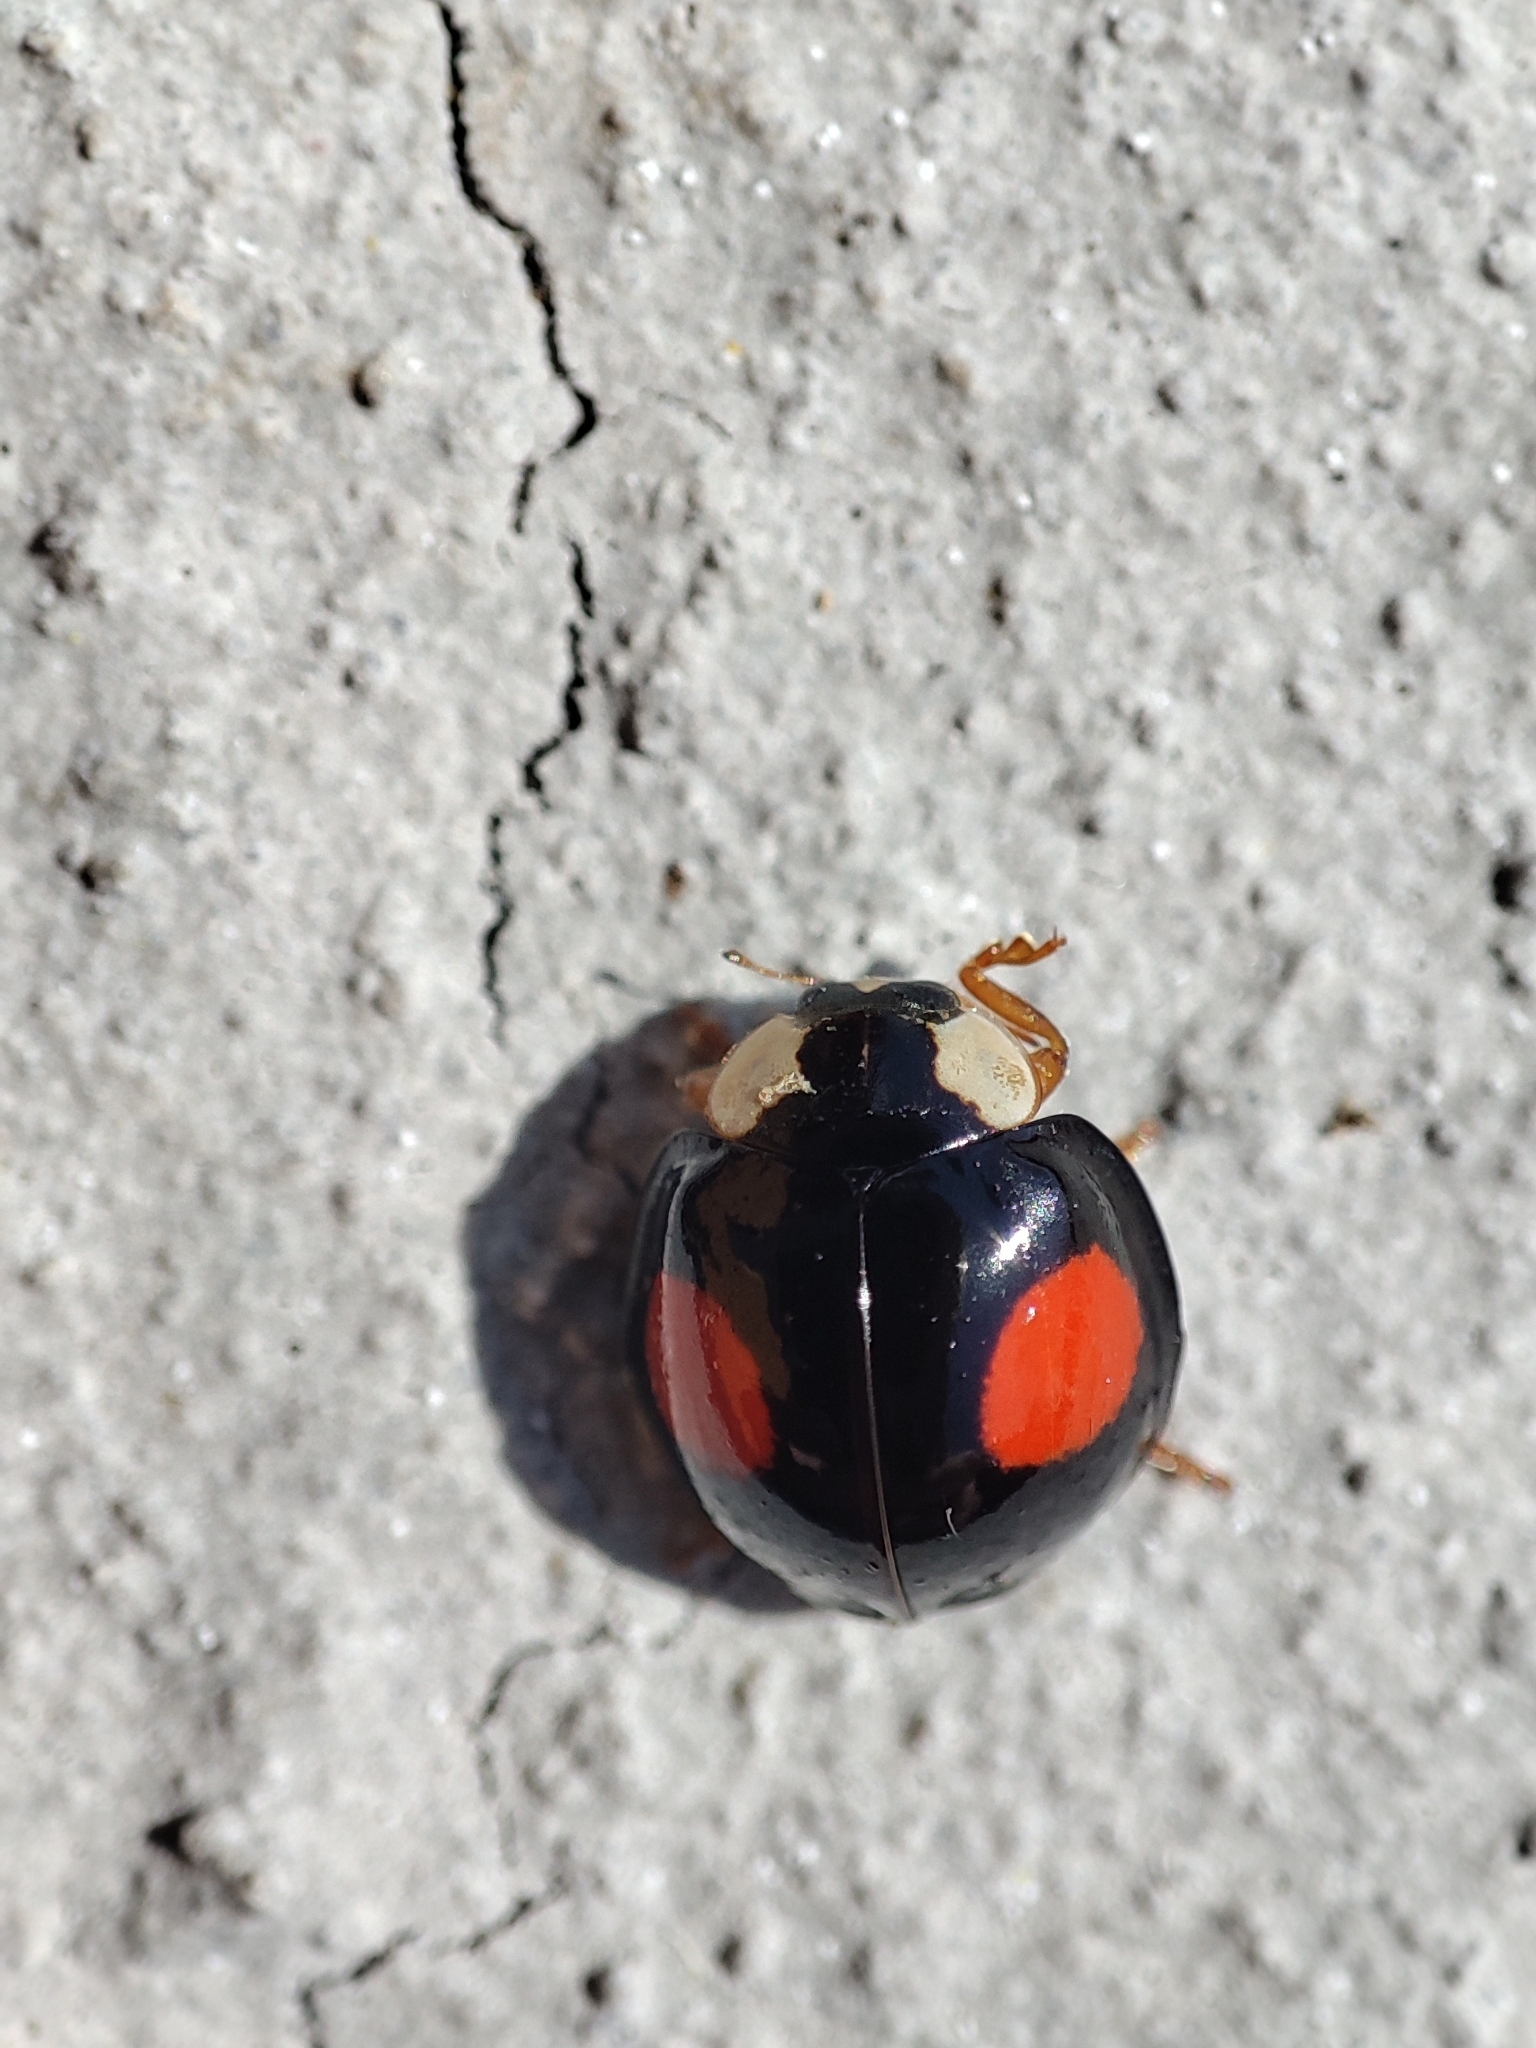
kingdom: Animalia
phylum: Arthropoda
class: Insecta
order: Coleoptera
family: Coccinellidae
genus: Harmonia
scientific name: Harmonia axyridis
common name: Harlequin ladybird
